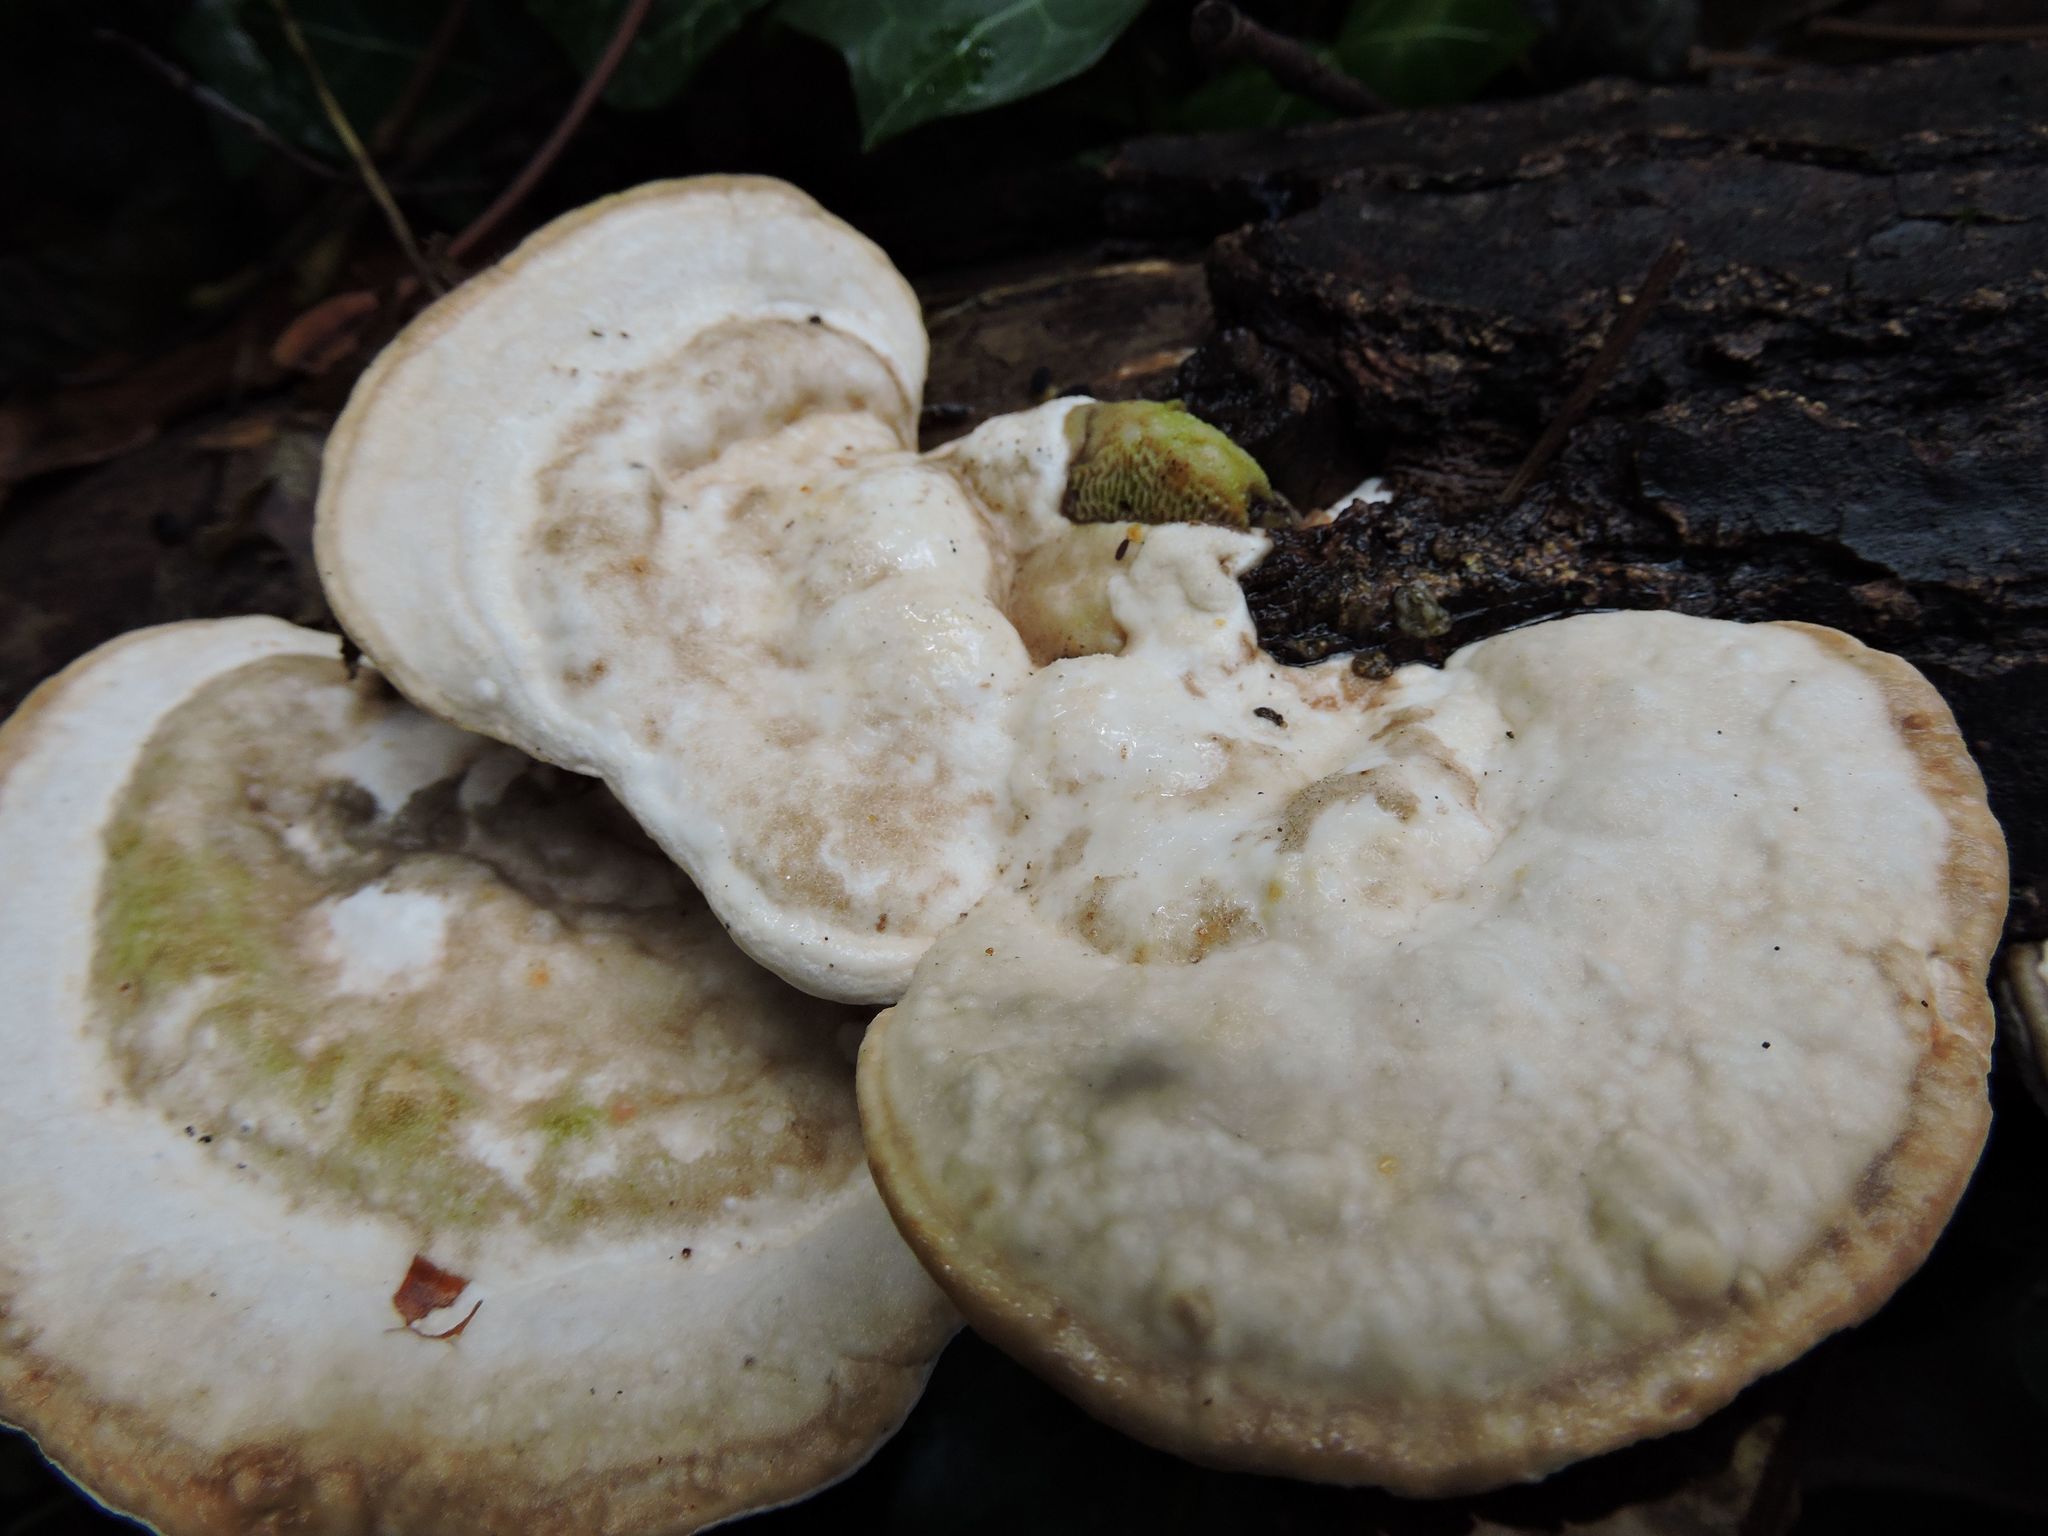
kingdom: Fungi
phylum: Basidiomycota
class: Agaricomycetes
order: Polyporales
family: Polyporaceae
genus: Trametes
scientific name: Trametes gibbosa
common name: Lumpy bracket
